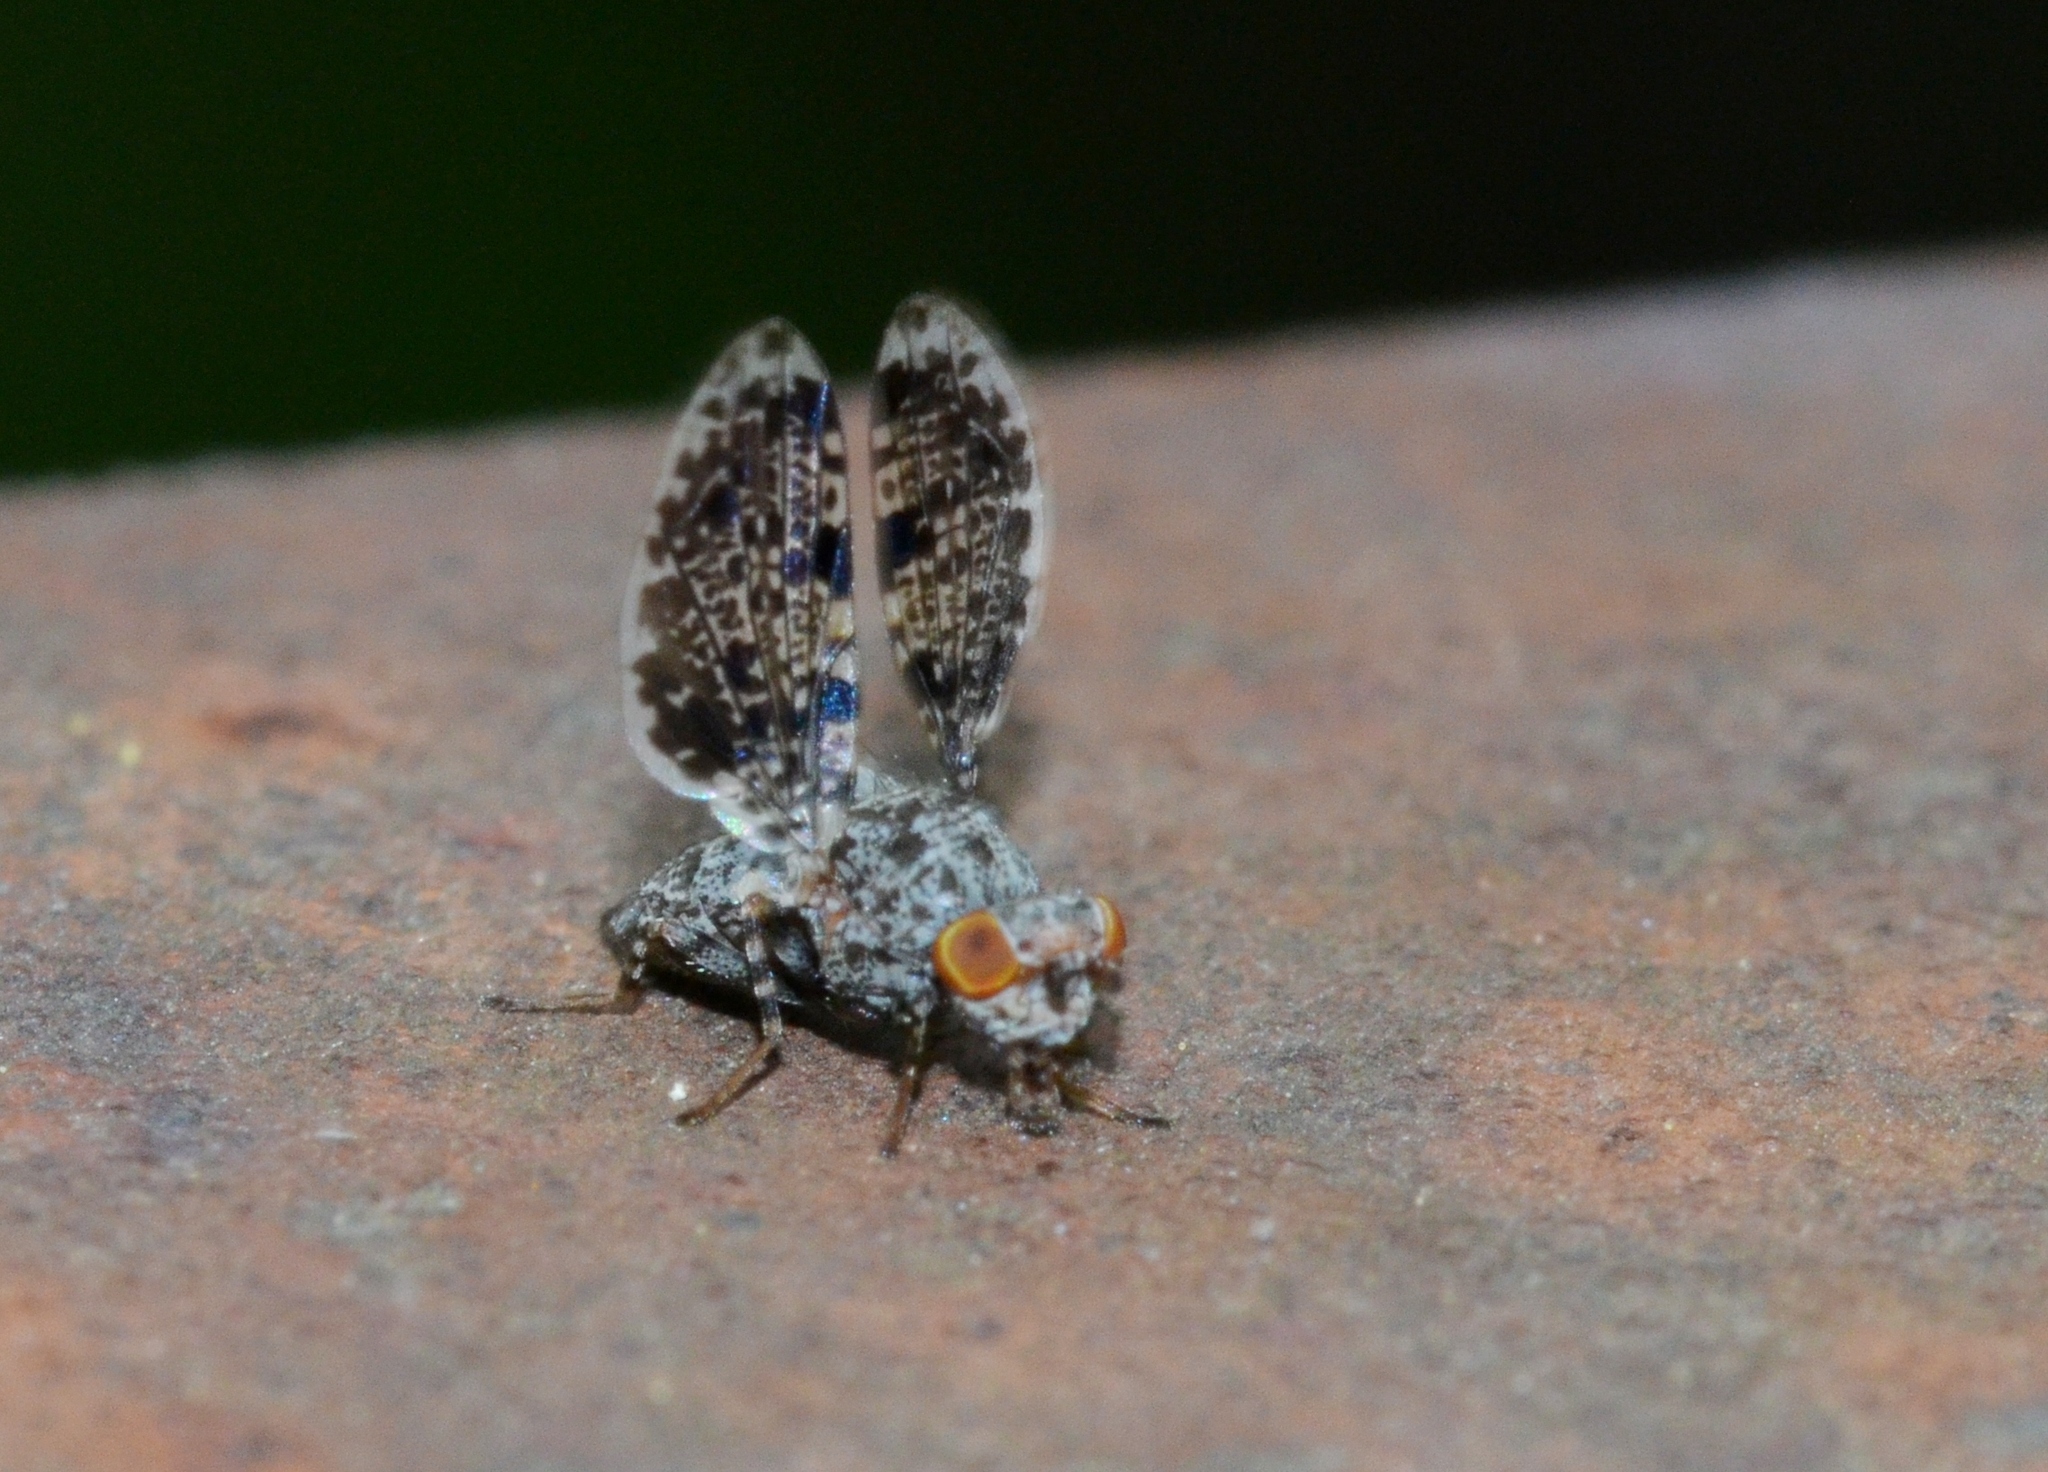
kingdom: Animalia
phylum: Arthropoda
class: Insecta
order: Diptera
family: Ulidiidae
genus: Callopistromyia
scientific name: Callopistromyia annulipes
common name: Peacock fly
